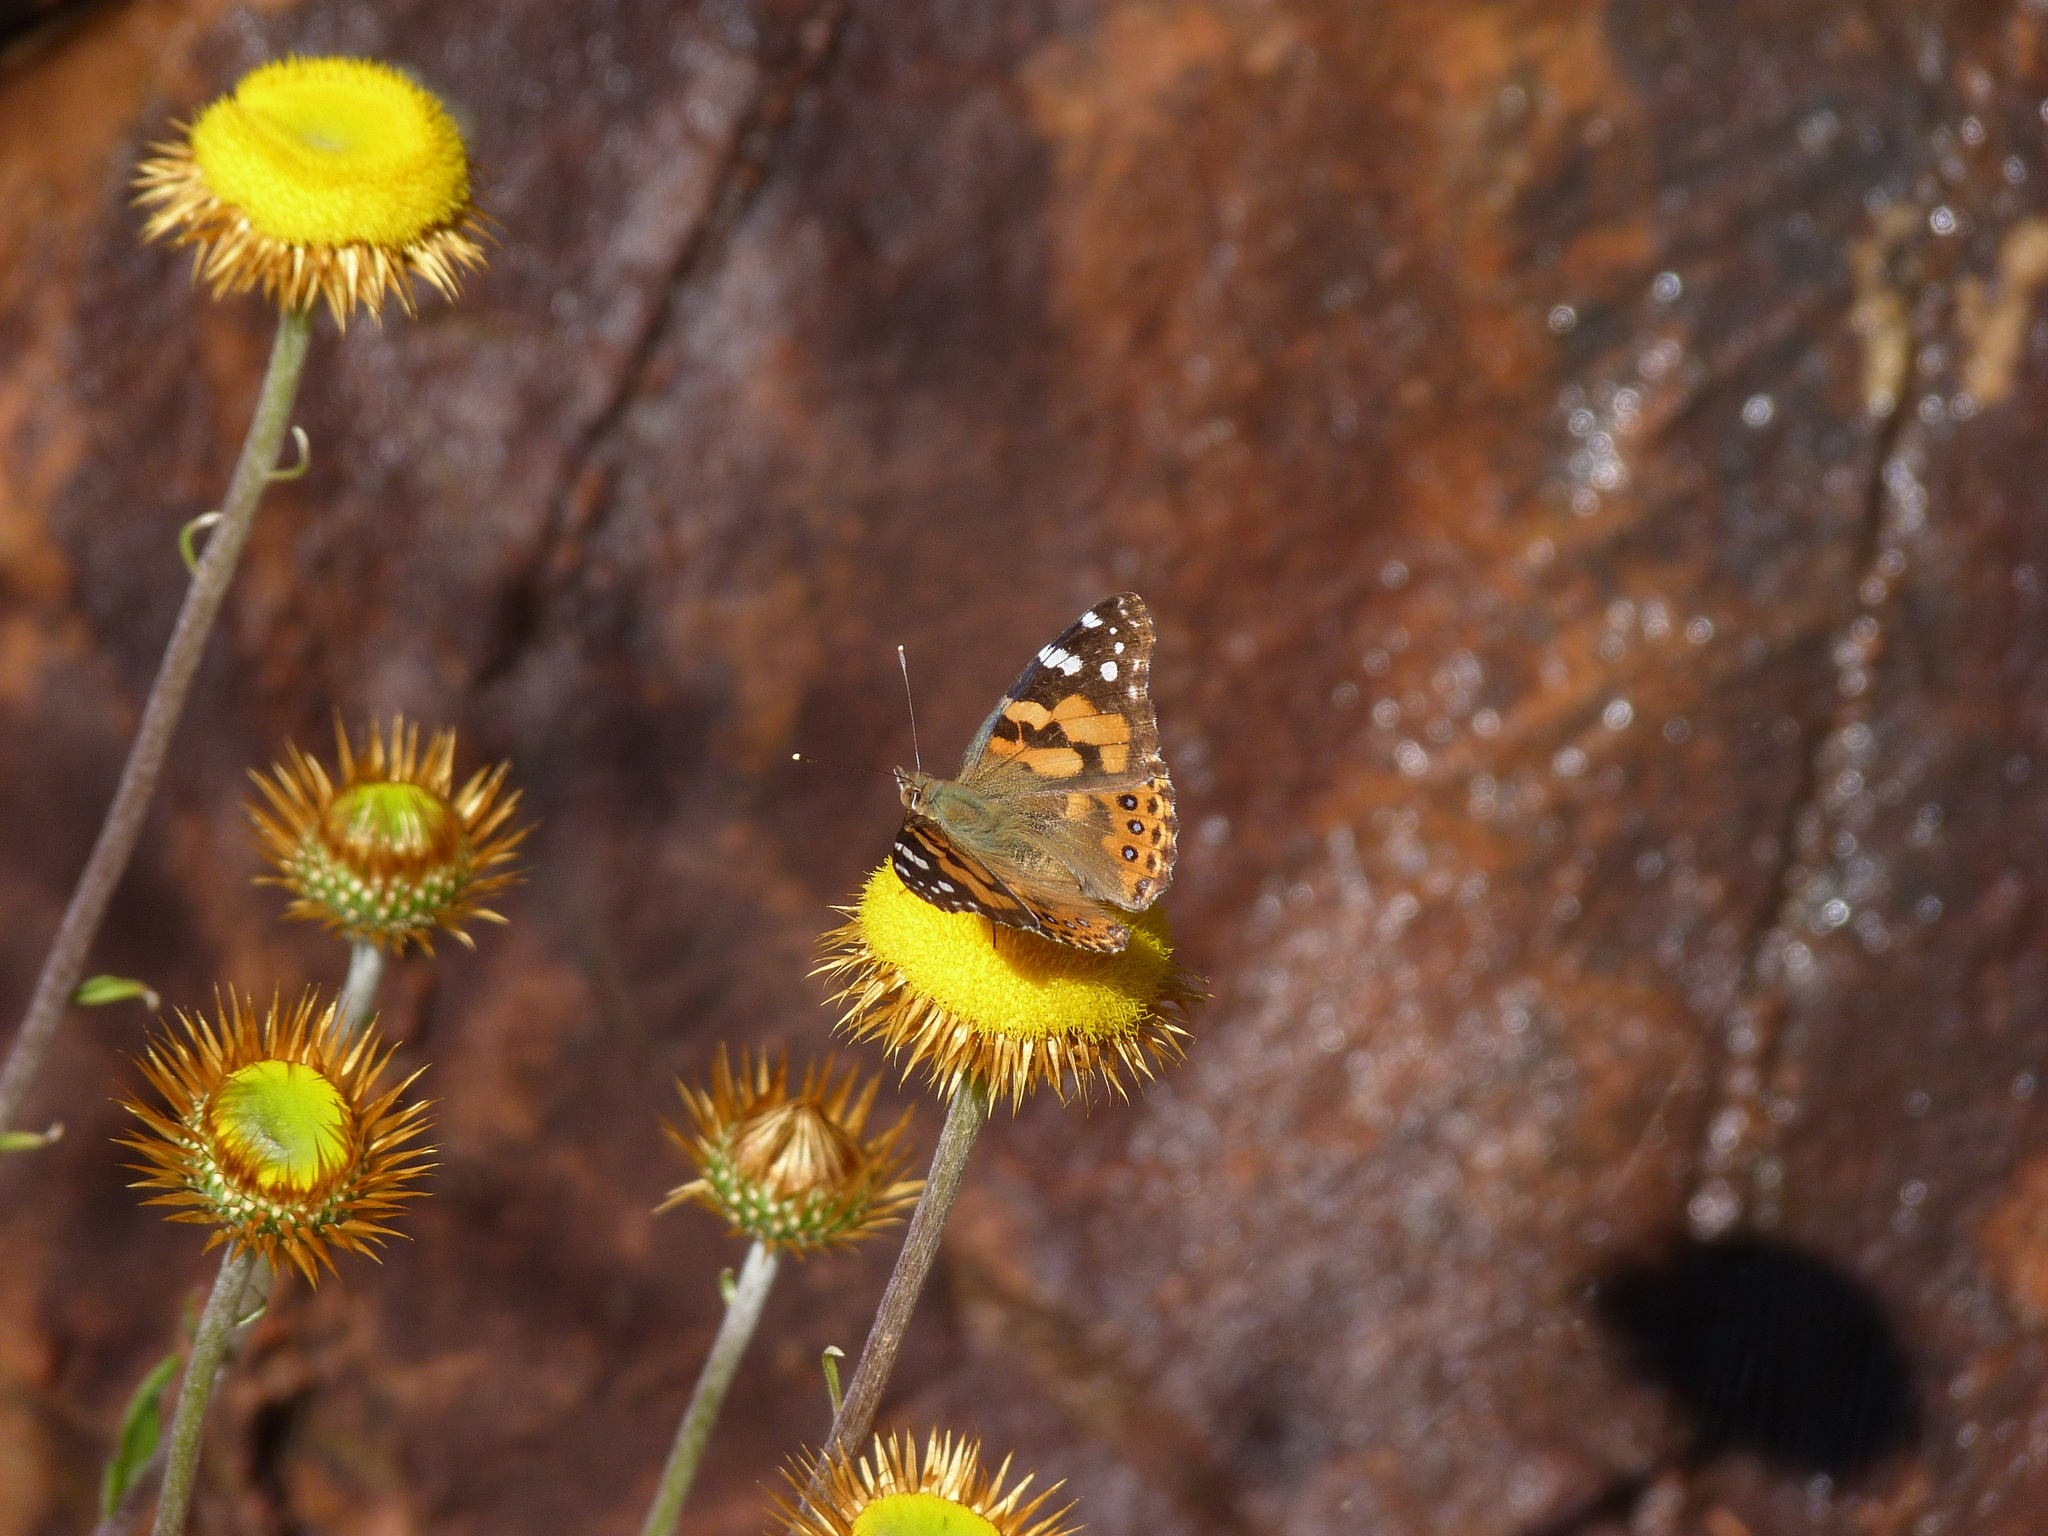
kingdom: Animalia
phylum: Arthropoda
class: Insecta
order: Lepidoptera
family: Nymphalidae
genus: Vanessa
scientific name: Vanessa kershawi
